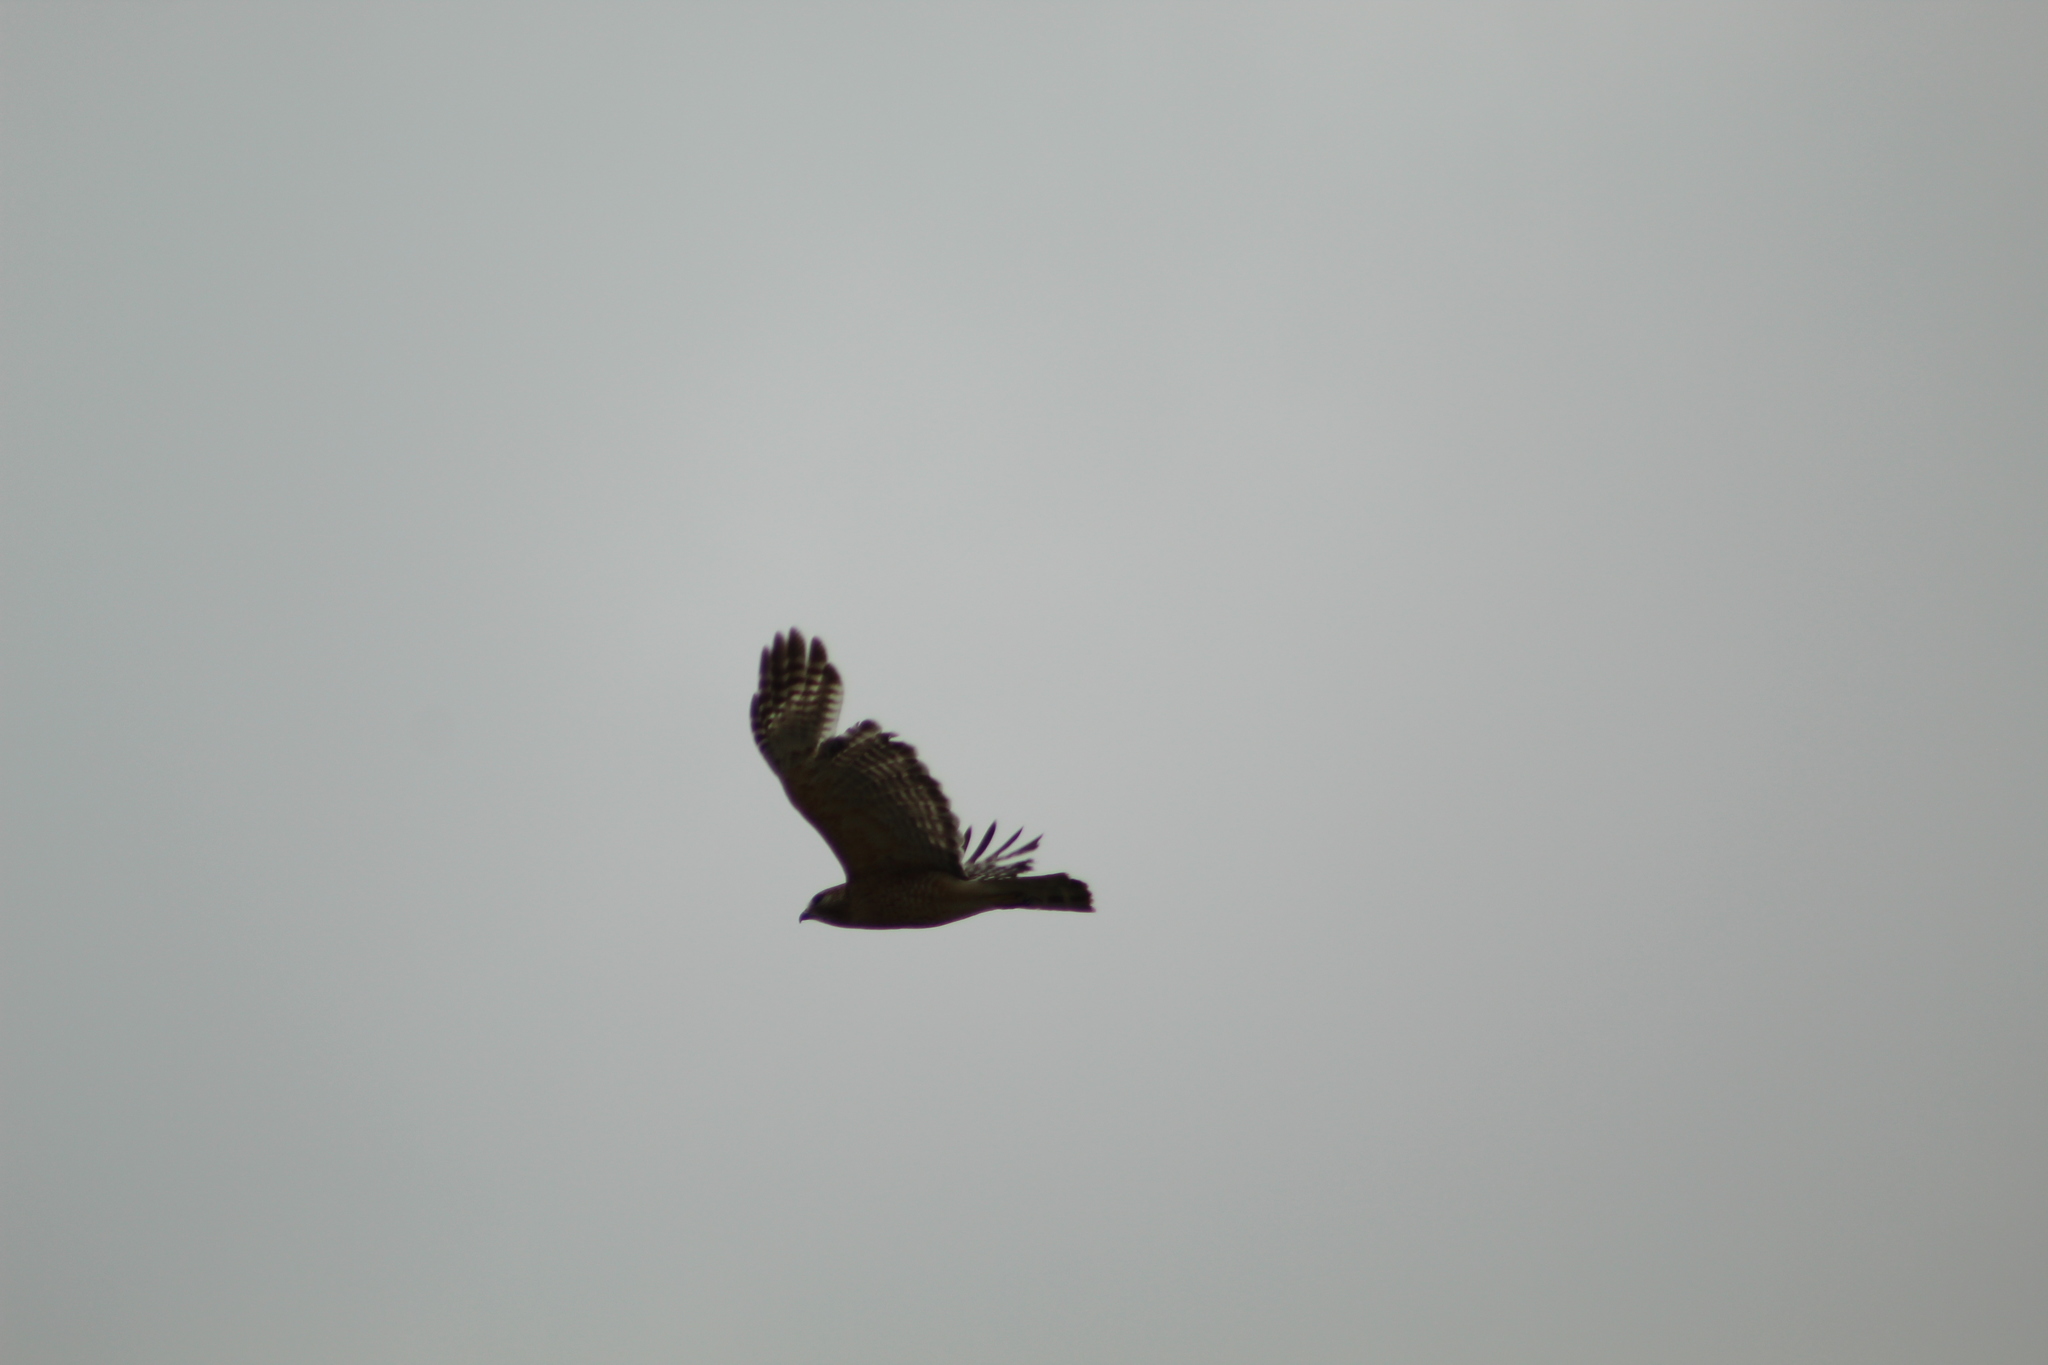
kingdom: Animalia
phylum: Chordata
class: Aves
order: Accipitriformes
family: Accipitridae
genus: Buteo
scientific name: Buteo lineatus
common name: Red-shouldered hawk
